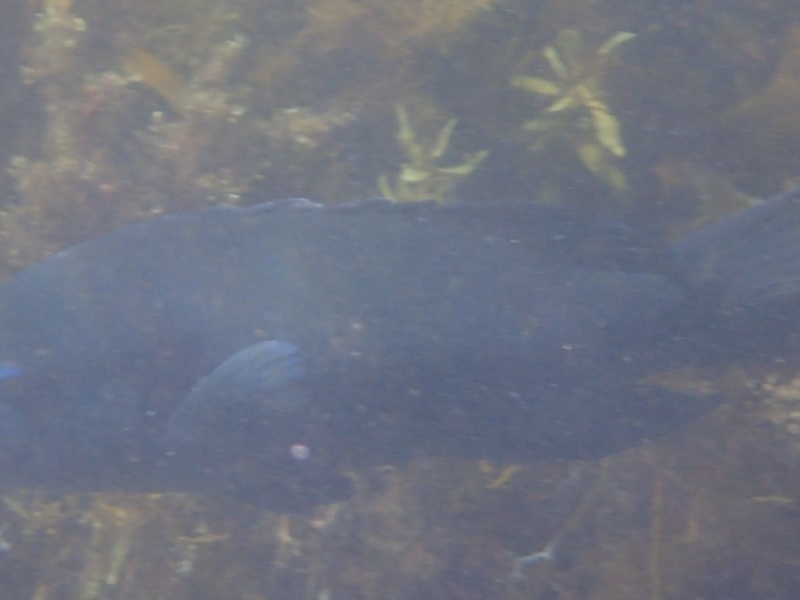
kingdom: Animalia
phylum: Chordata
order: Perciformes
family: Labridae
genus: Achoerodus
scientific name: Achoerodus viridis
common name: Brown groper
